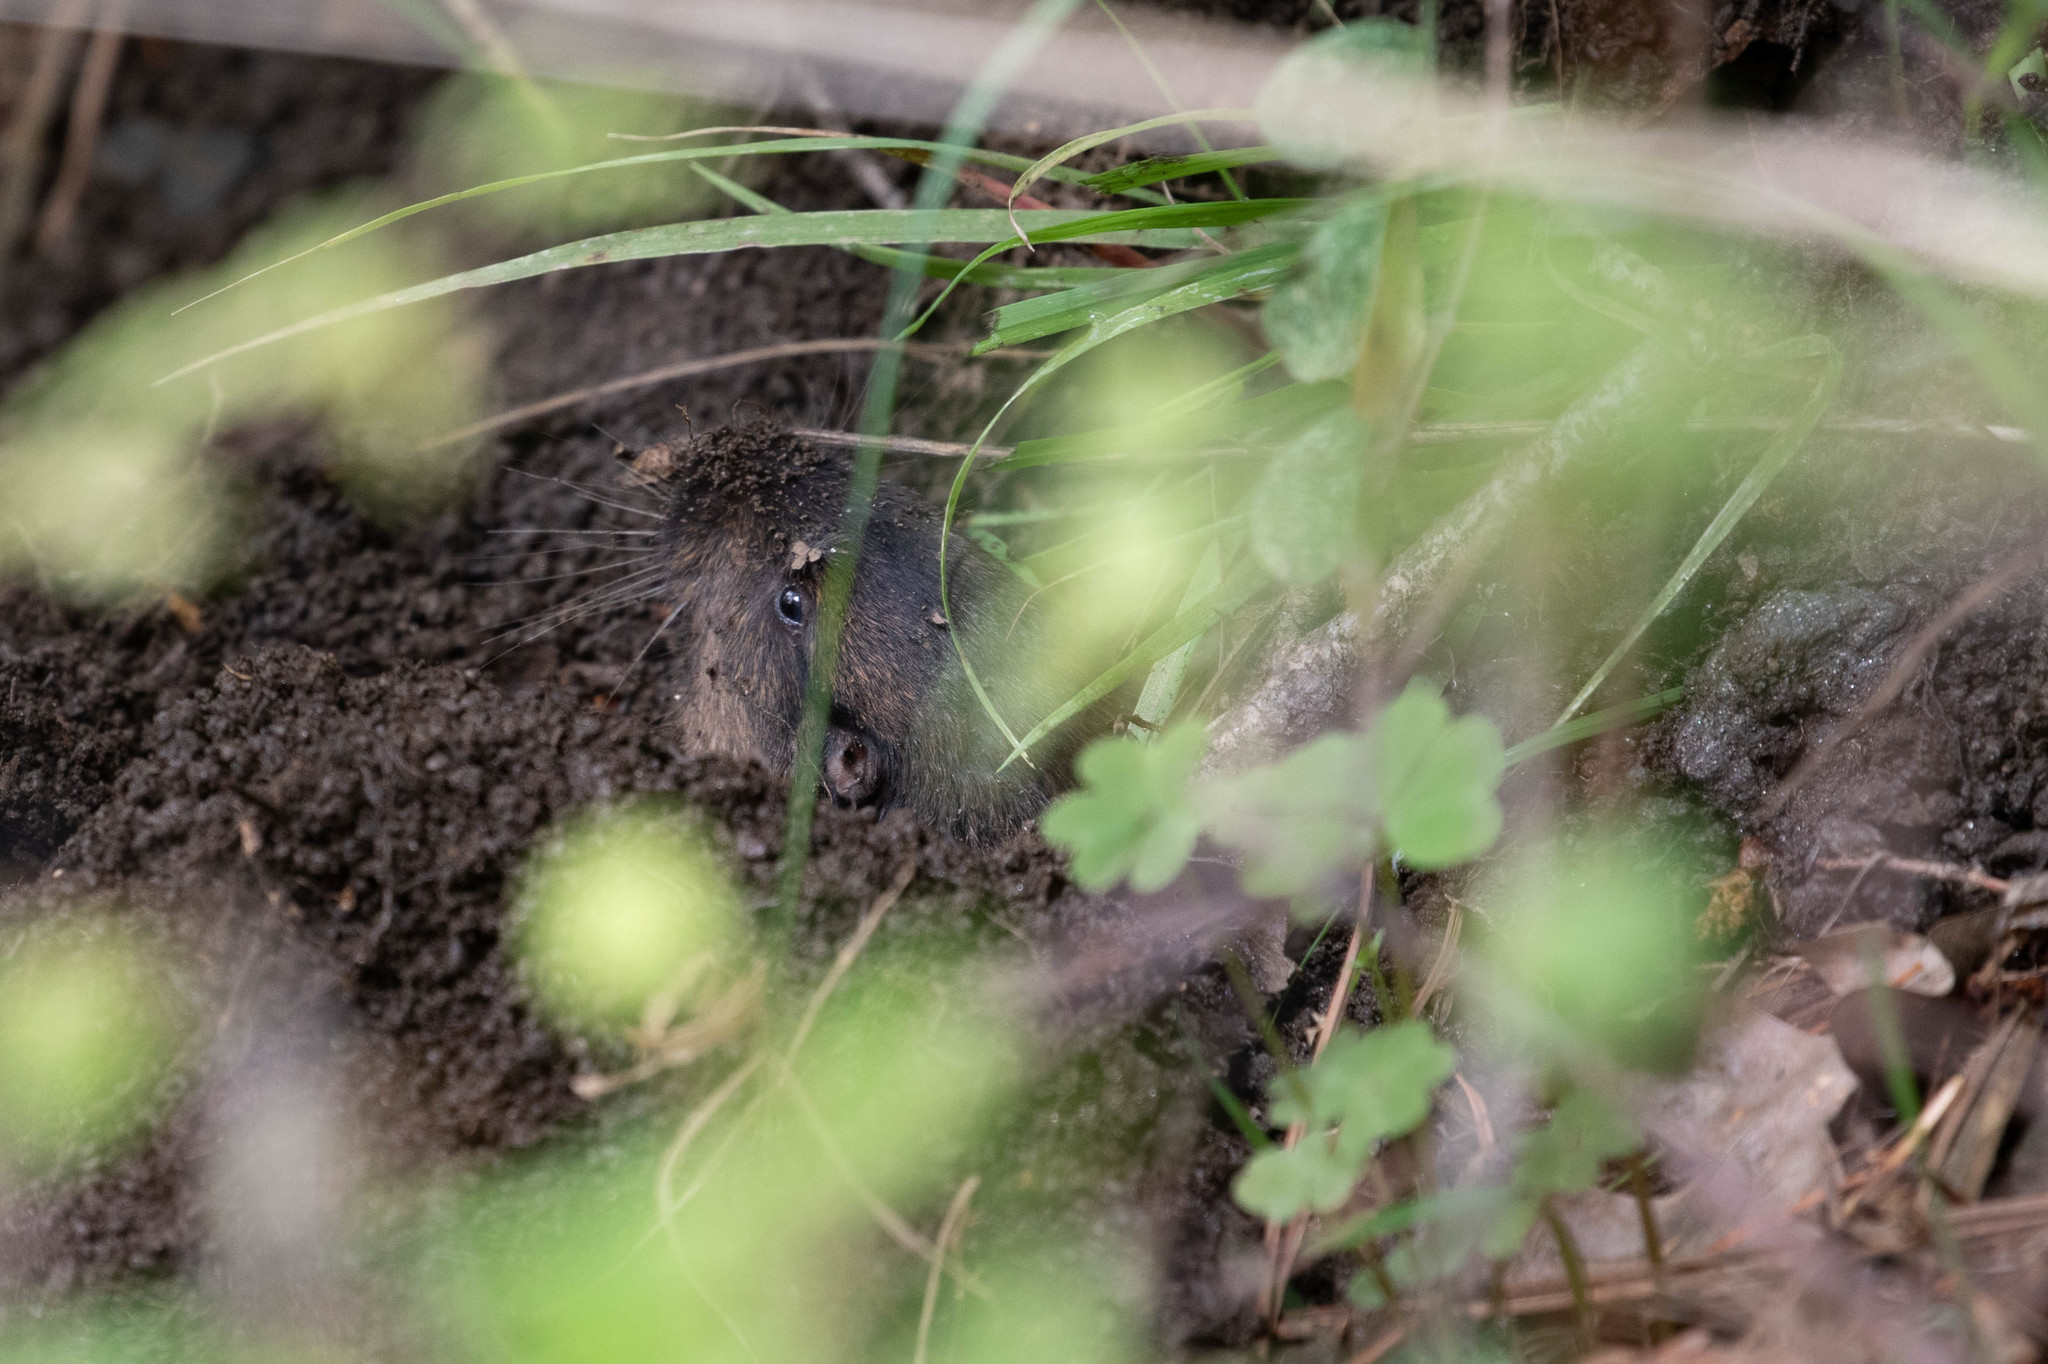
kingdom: Animalia
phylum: Chordata
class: Mammalia
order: Rodentia
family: Geomyidae
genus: Thomomys
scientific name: Thomomys bottae
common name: Botta's pocket gopher
